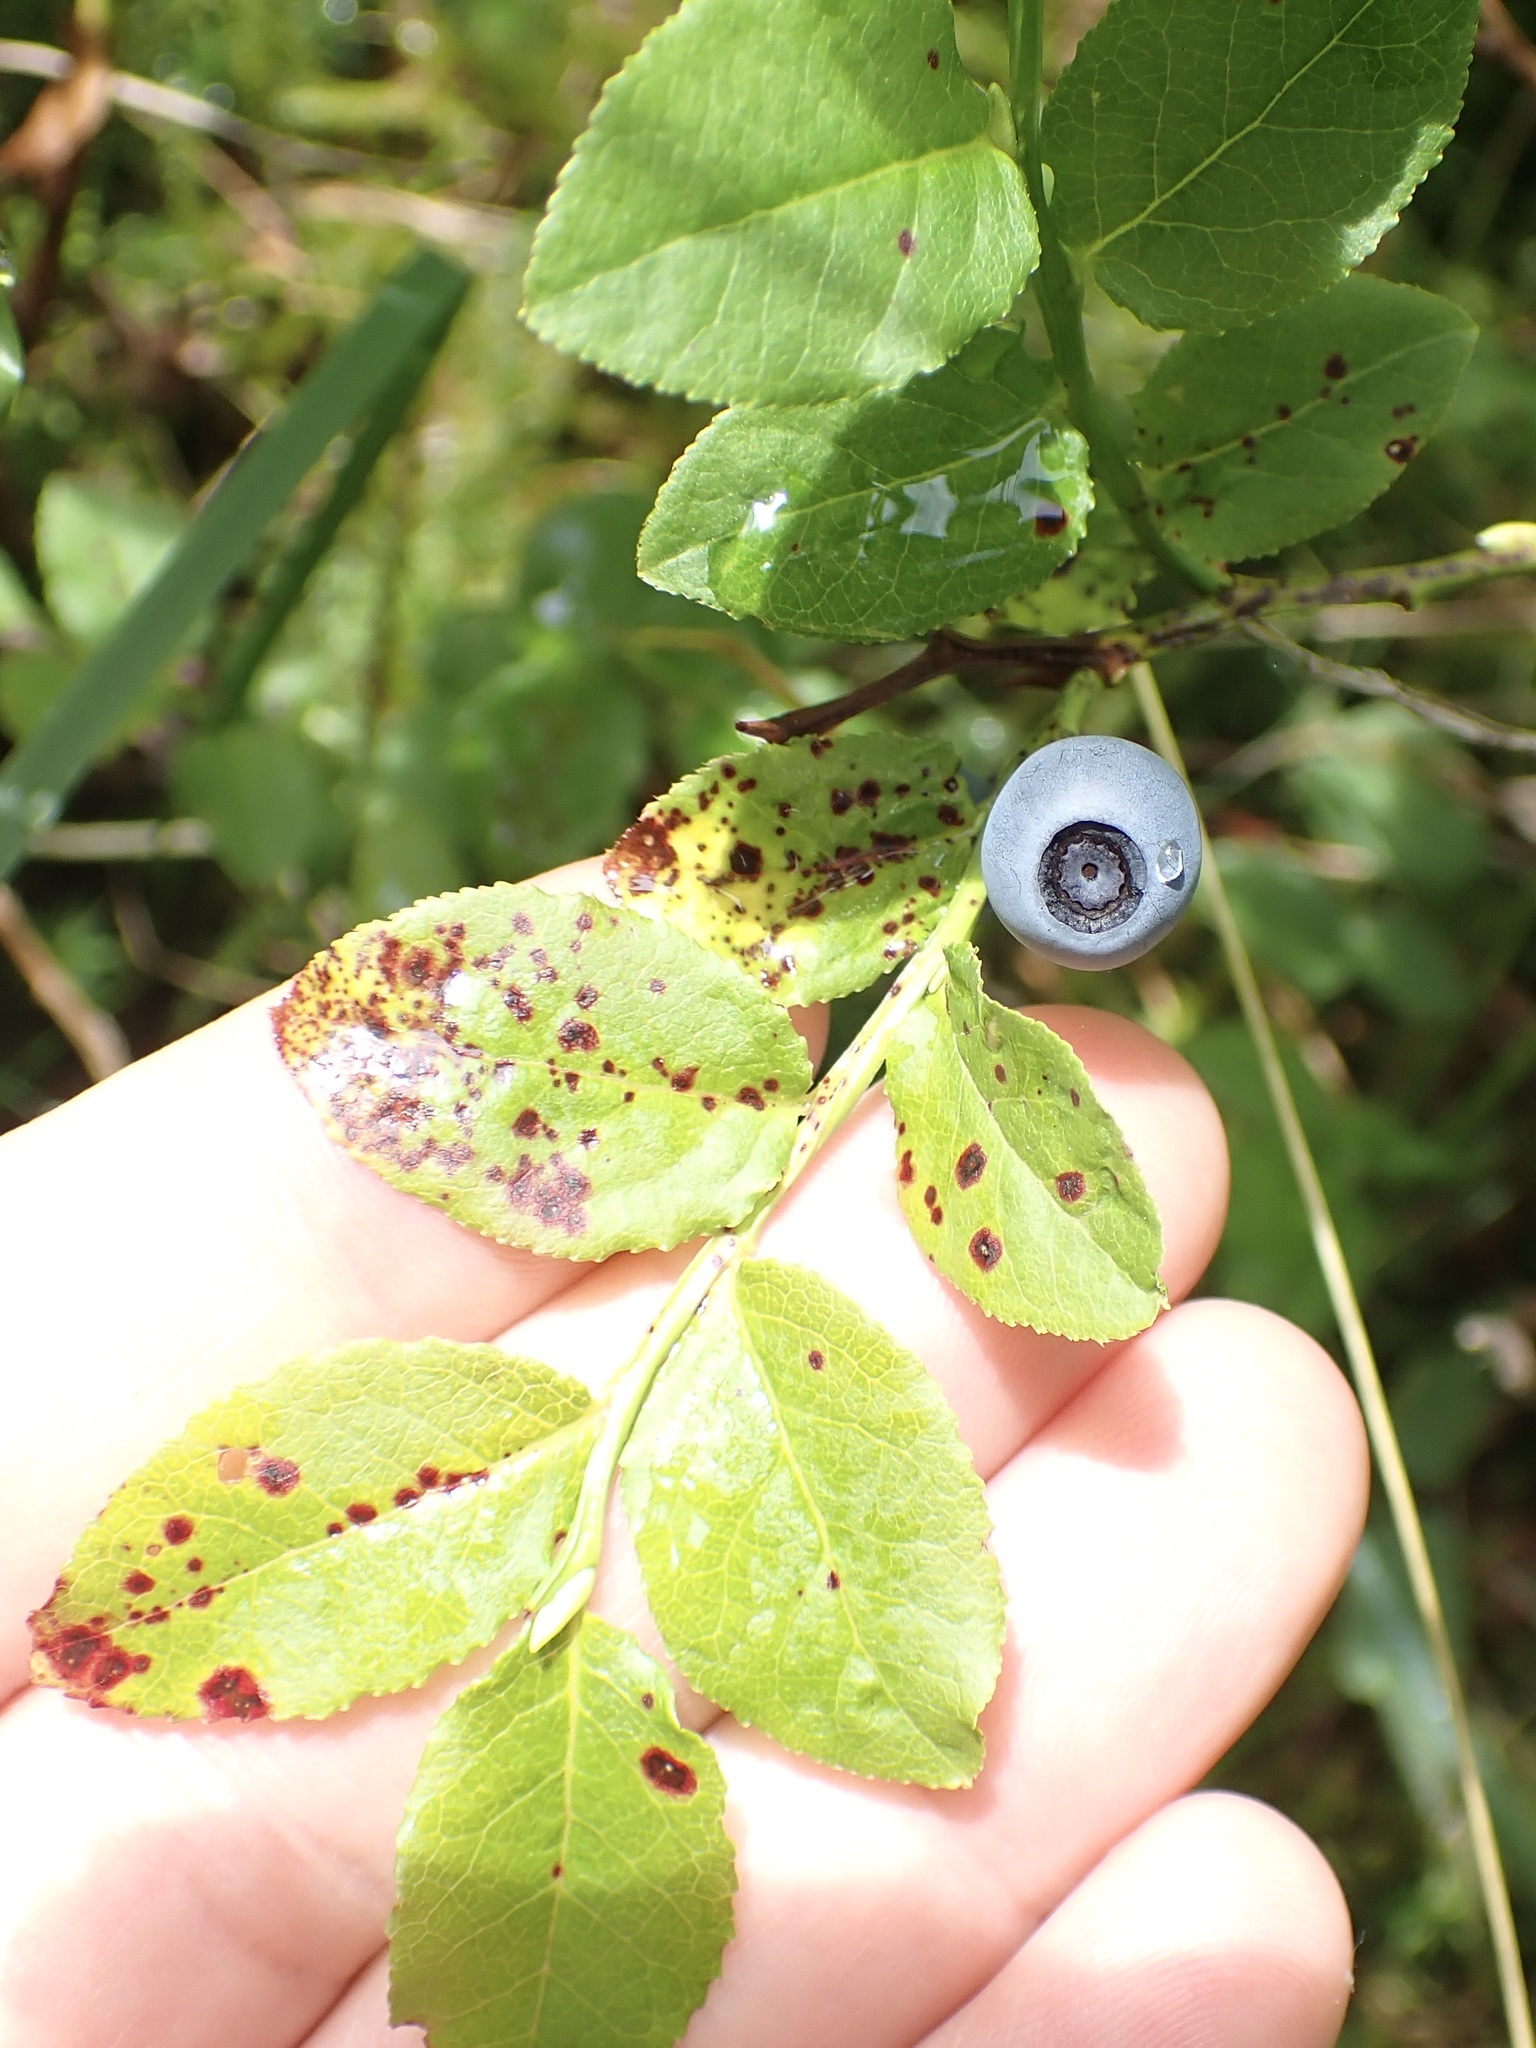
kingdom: Plantae
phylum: Tracheophyta
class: Magnoliopsida
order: Ericales
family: Ericaceae
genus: Vaccinium
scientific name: Vaccinium myrtillus
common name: Bilberry
